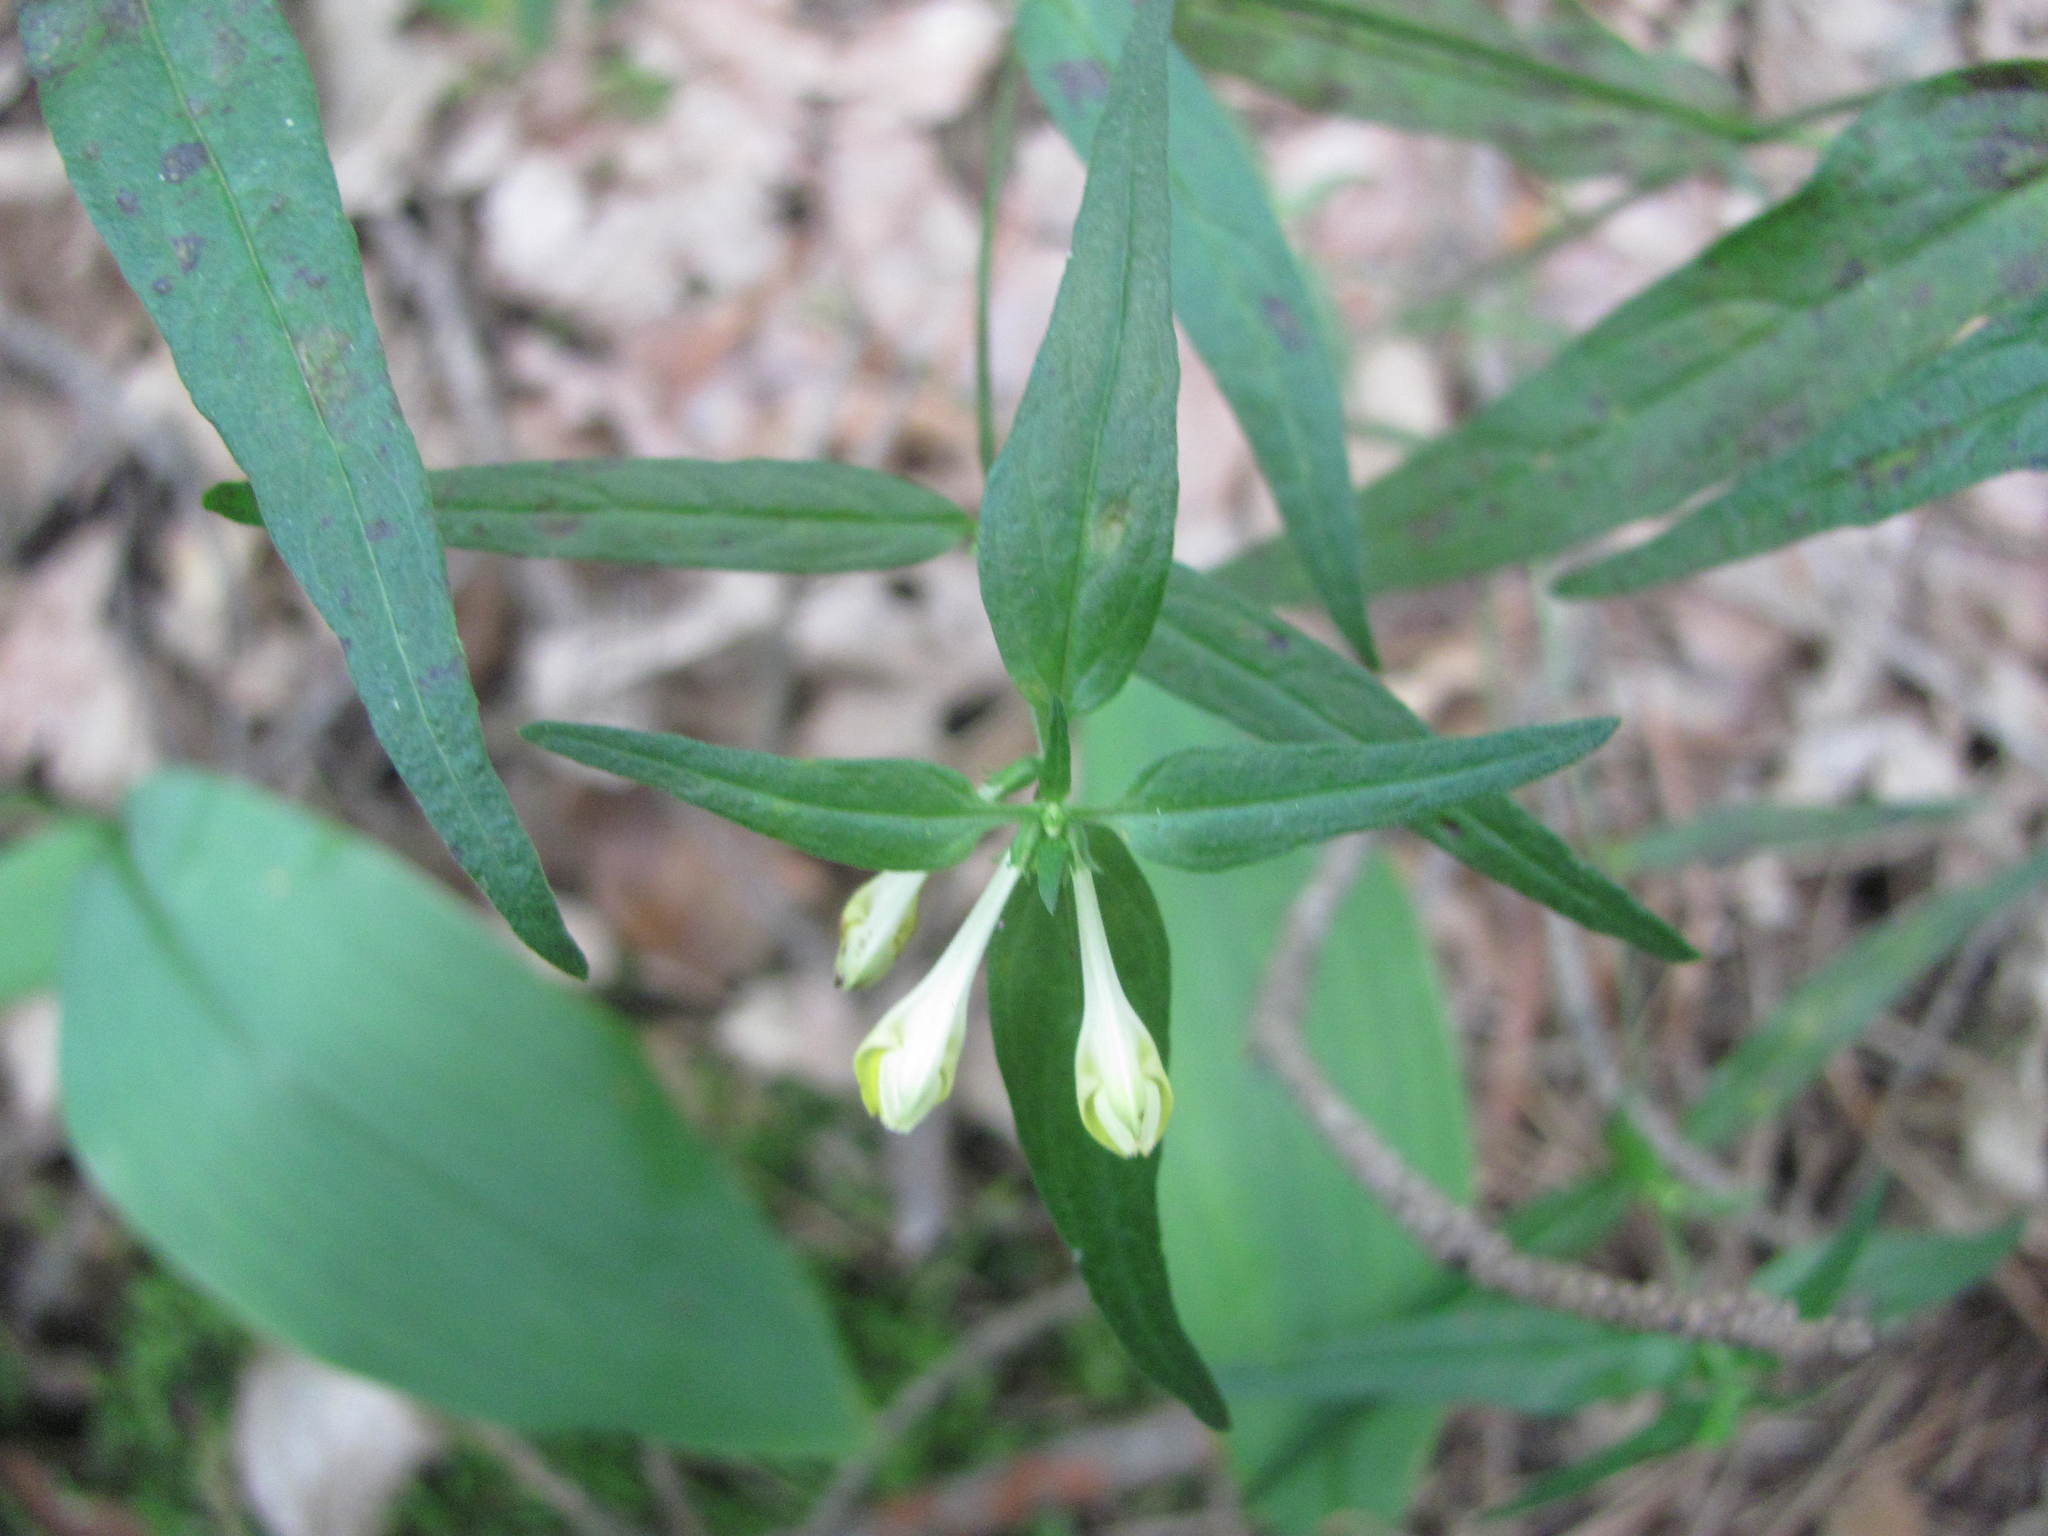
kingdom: Plantae
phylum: Tracheophyta
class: Magnoliopsida
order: Lamiales
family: Orobanchaceae
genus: Melampyrum
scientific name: Melampyrum pratense
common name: Common cow-wheat
